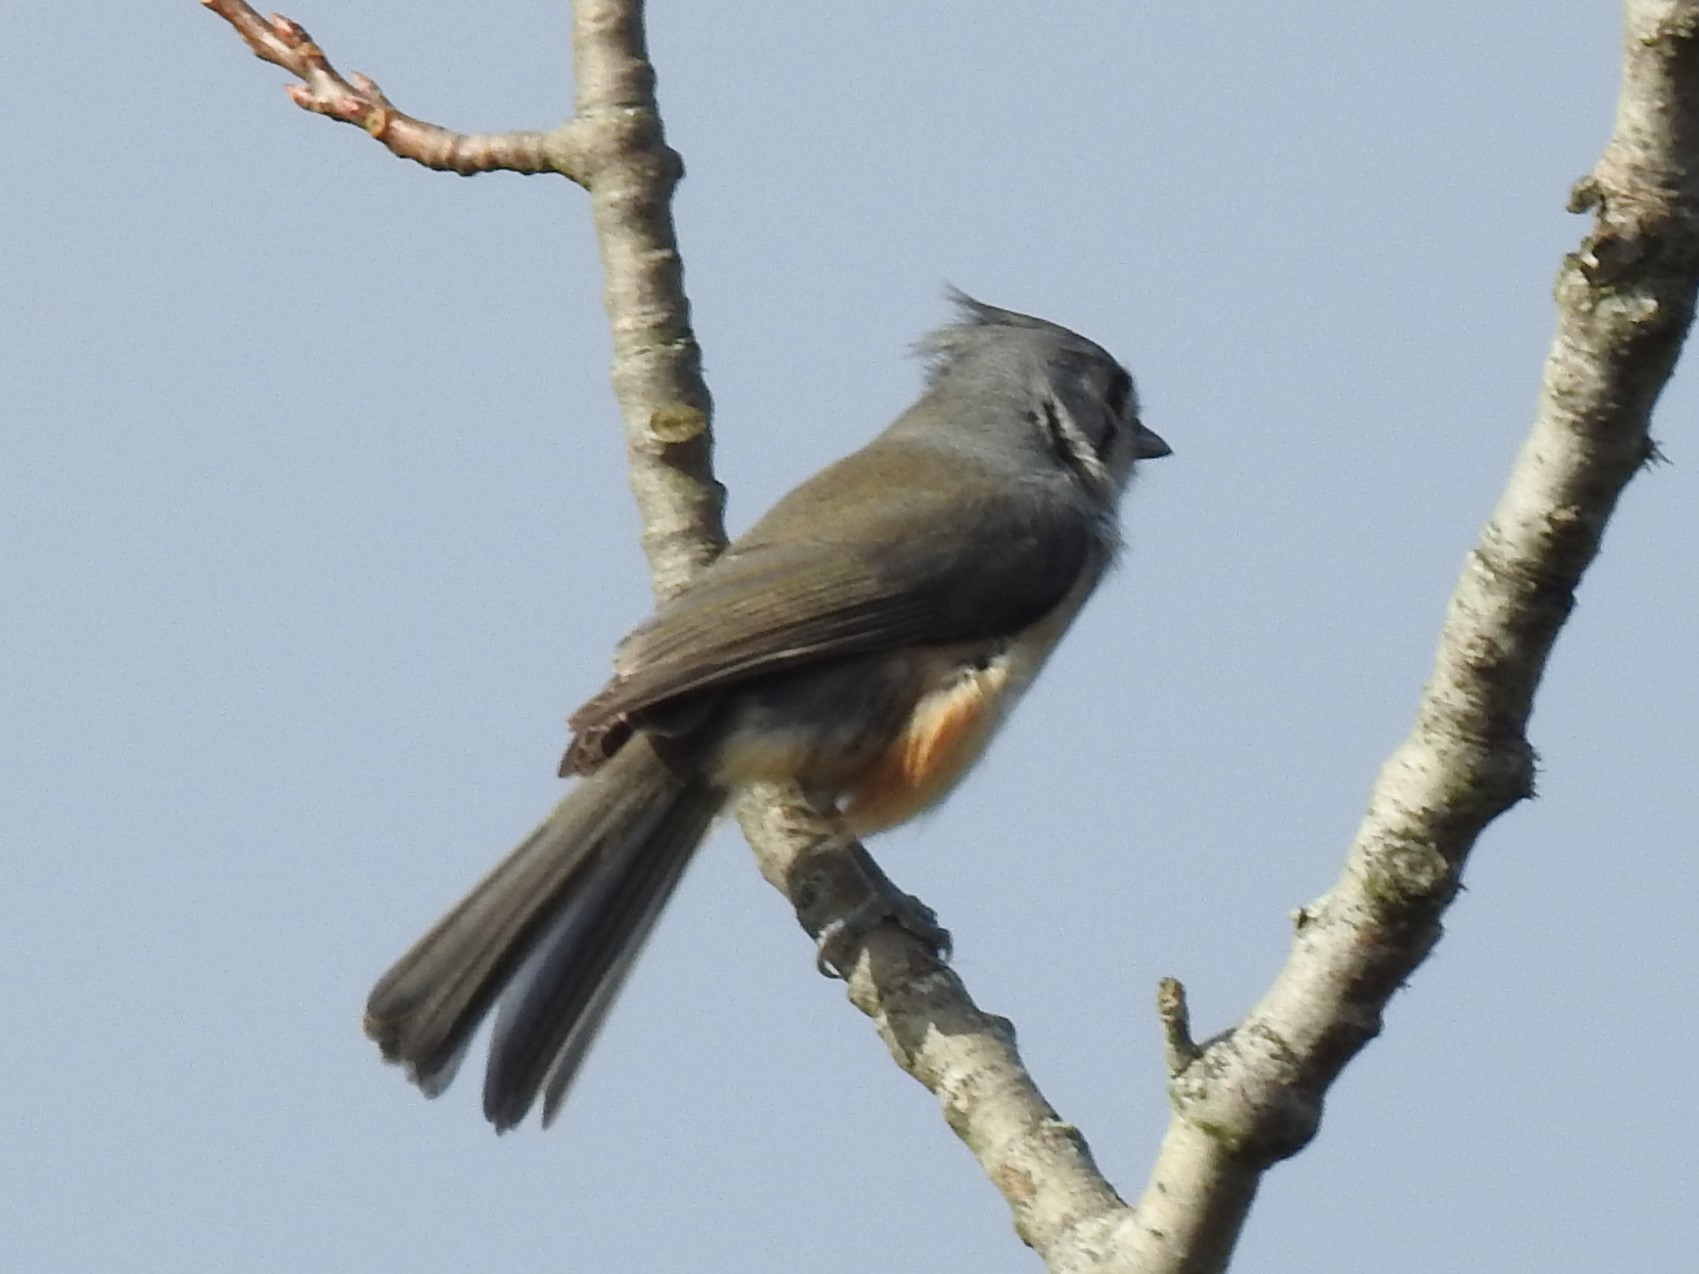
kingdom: Animalia
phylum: Chordata
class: Aves
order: Passeriformes
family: Paridae
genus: Baeolophus
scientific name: Baeolophus bicolor
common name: Tufted titmouse
